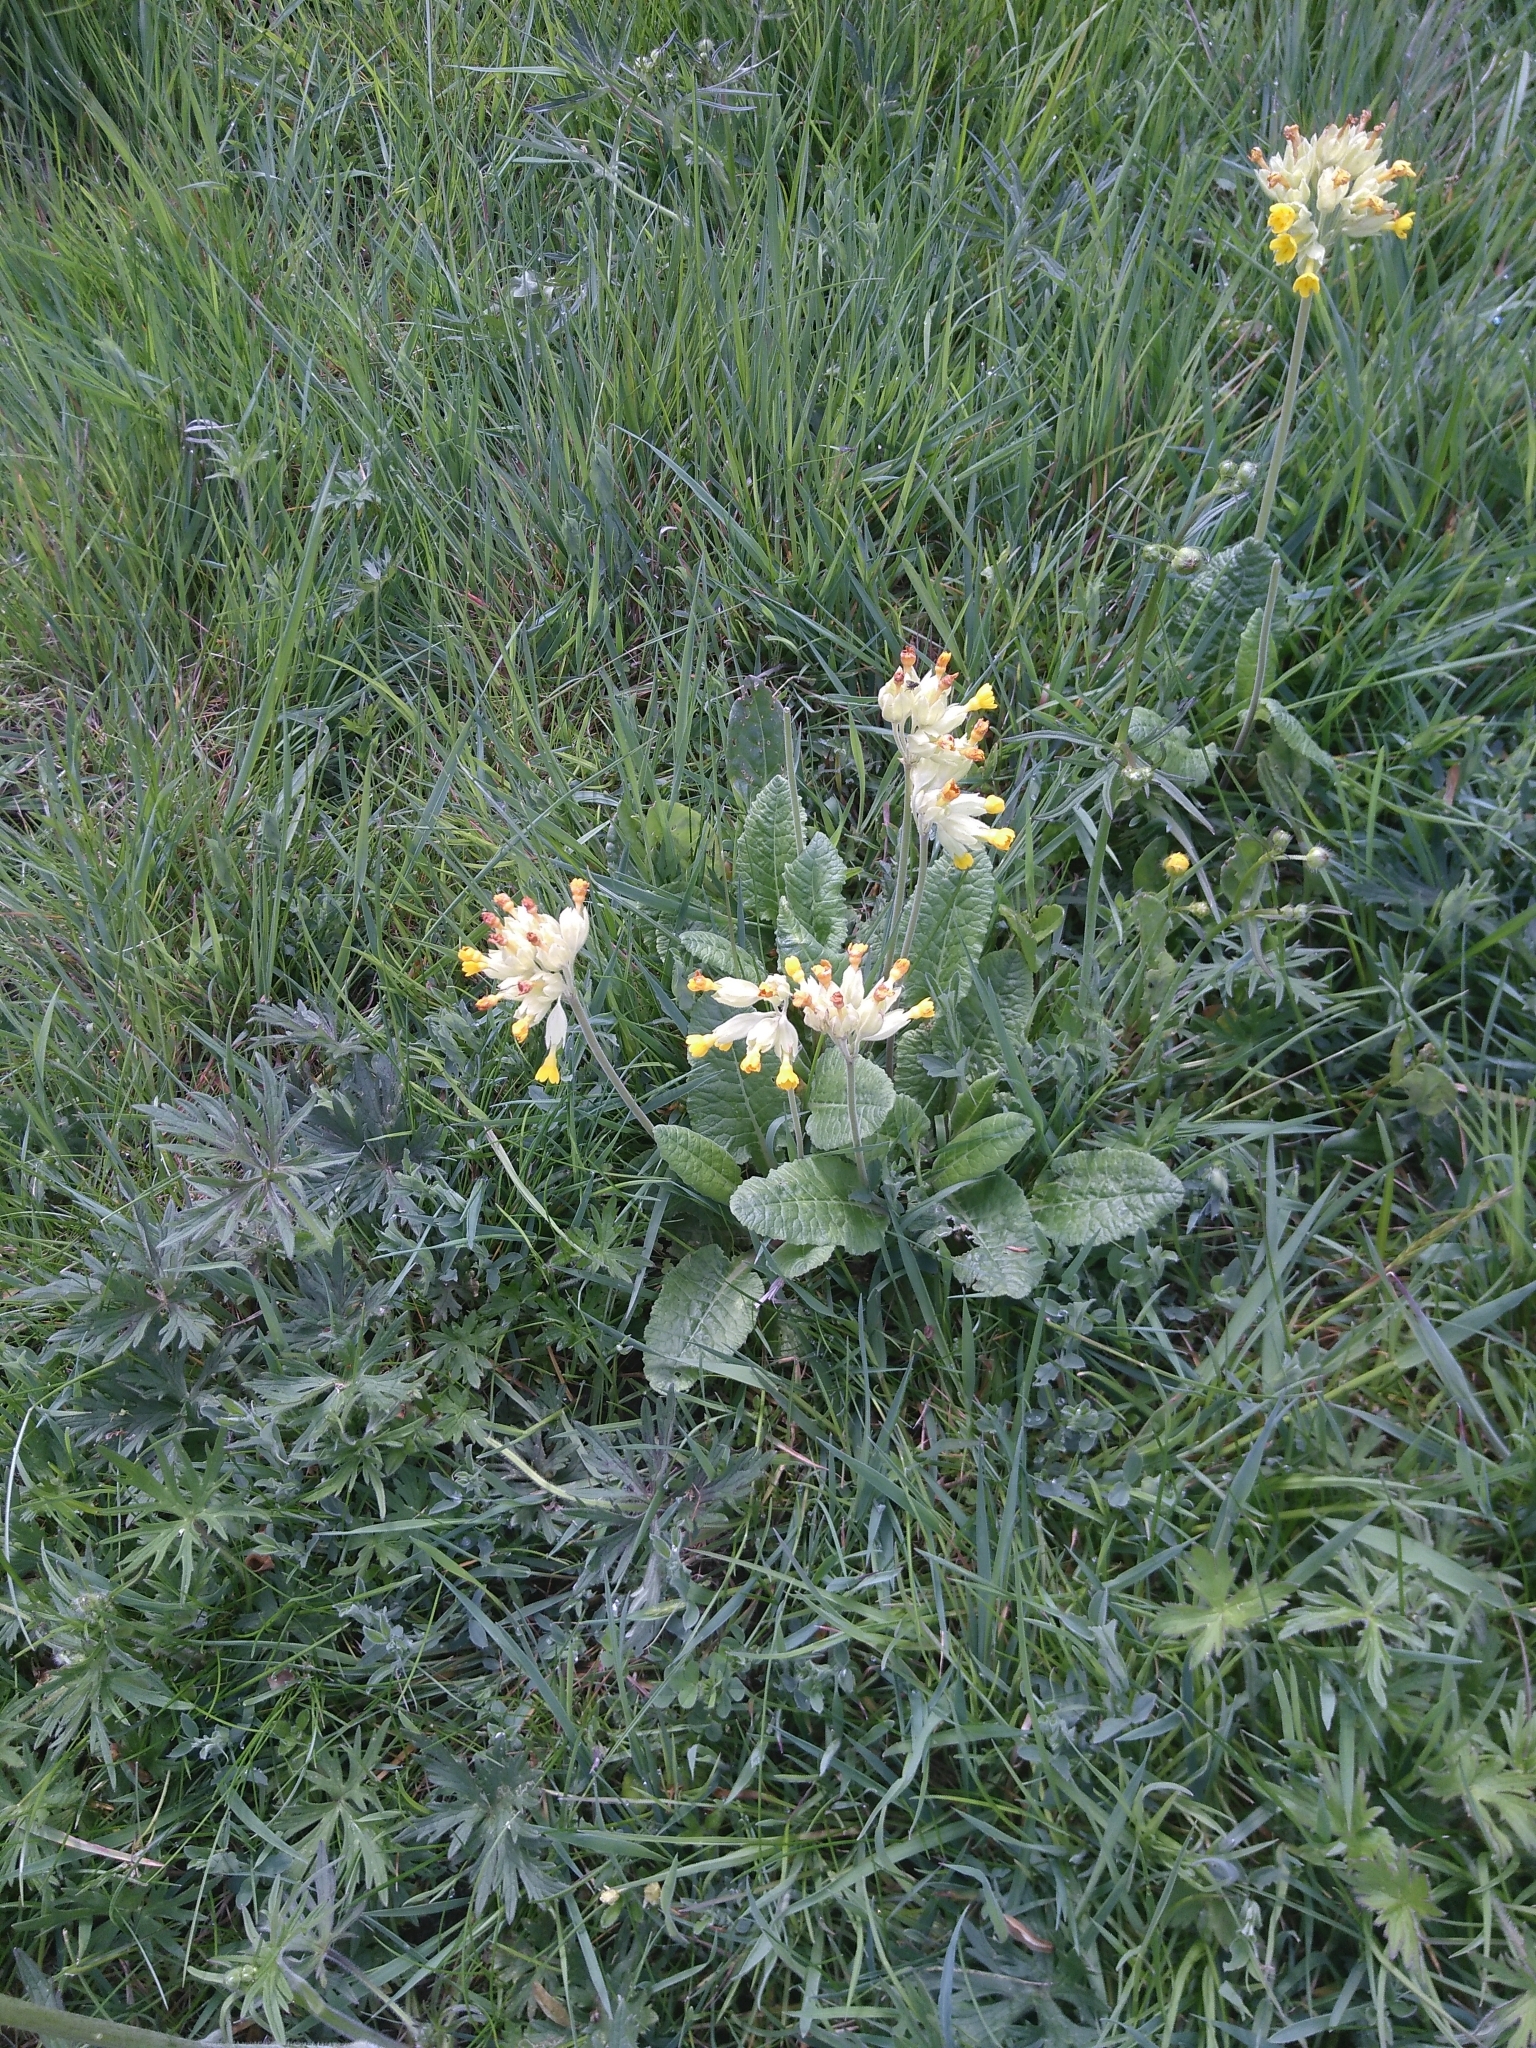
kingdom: Plantae
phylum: Tracheophyta
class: Magnoliopsida
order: Ericales
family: Primulaceae
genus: Primula
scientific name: Primula veris
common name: Cowslip
